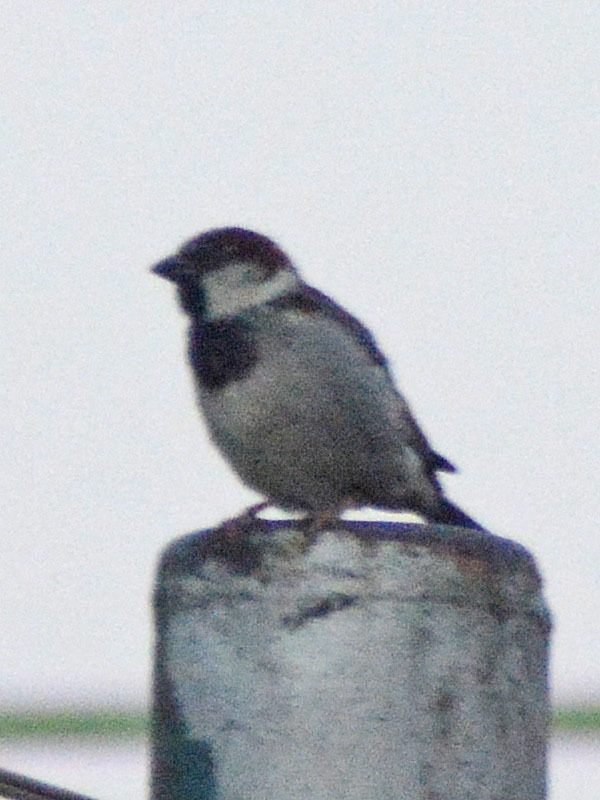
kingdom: Animalia
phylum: Chordata
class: Aves
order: Passeriformes
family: Passeridae
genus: Passer
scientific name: Passer domesticus
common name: House sparrow
